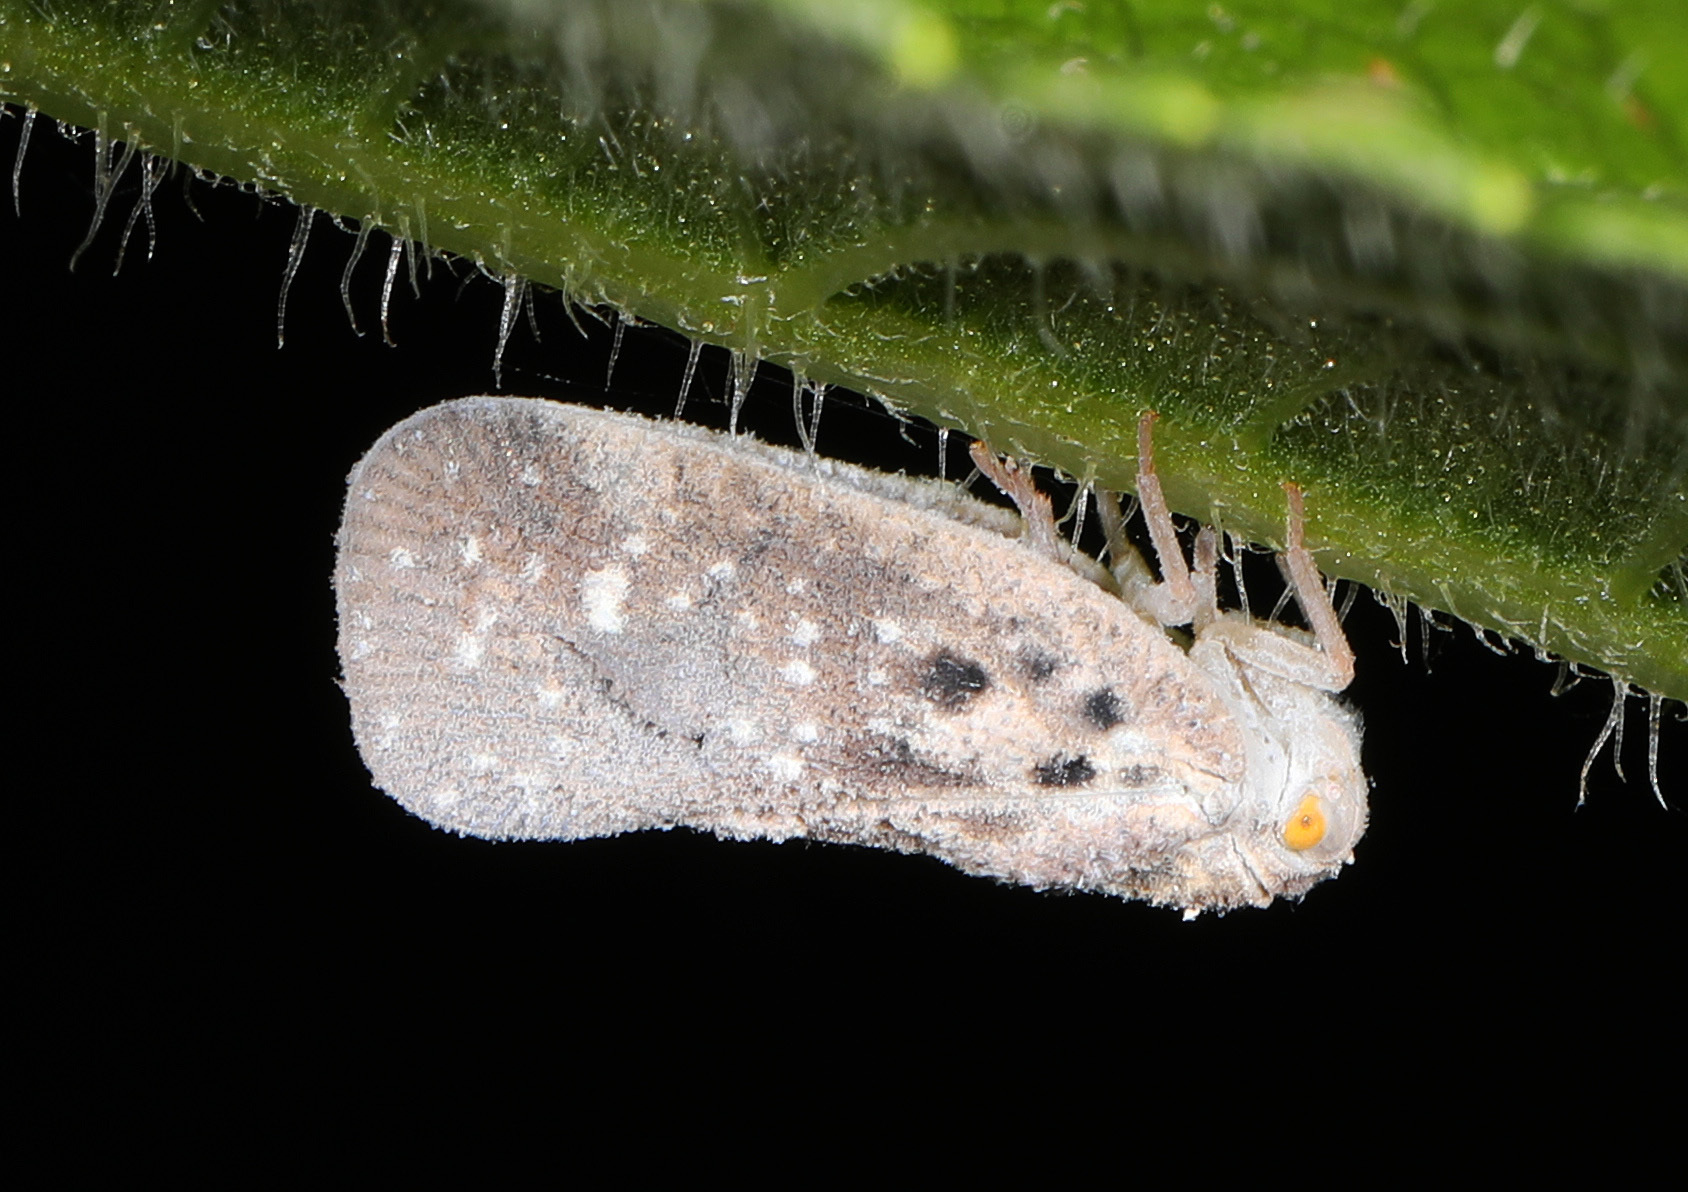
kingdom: Animalia
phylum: Arthropoda
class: Insecta
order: Hemiptera
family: Flatidae
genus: Metcalfa
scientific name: Metcalfa pruinosa
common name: Citrus flatid planthopper
